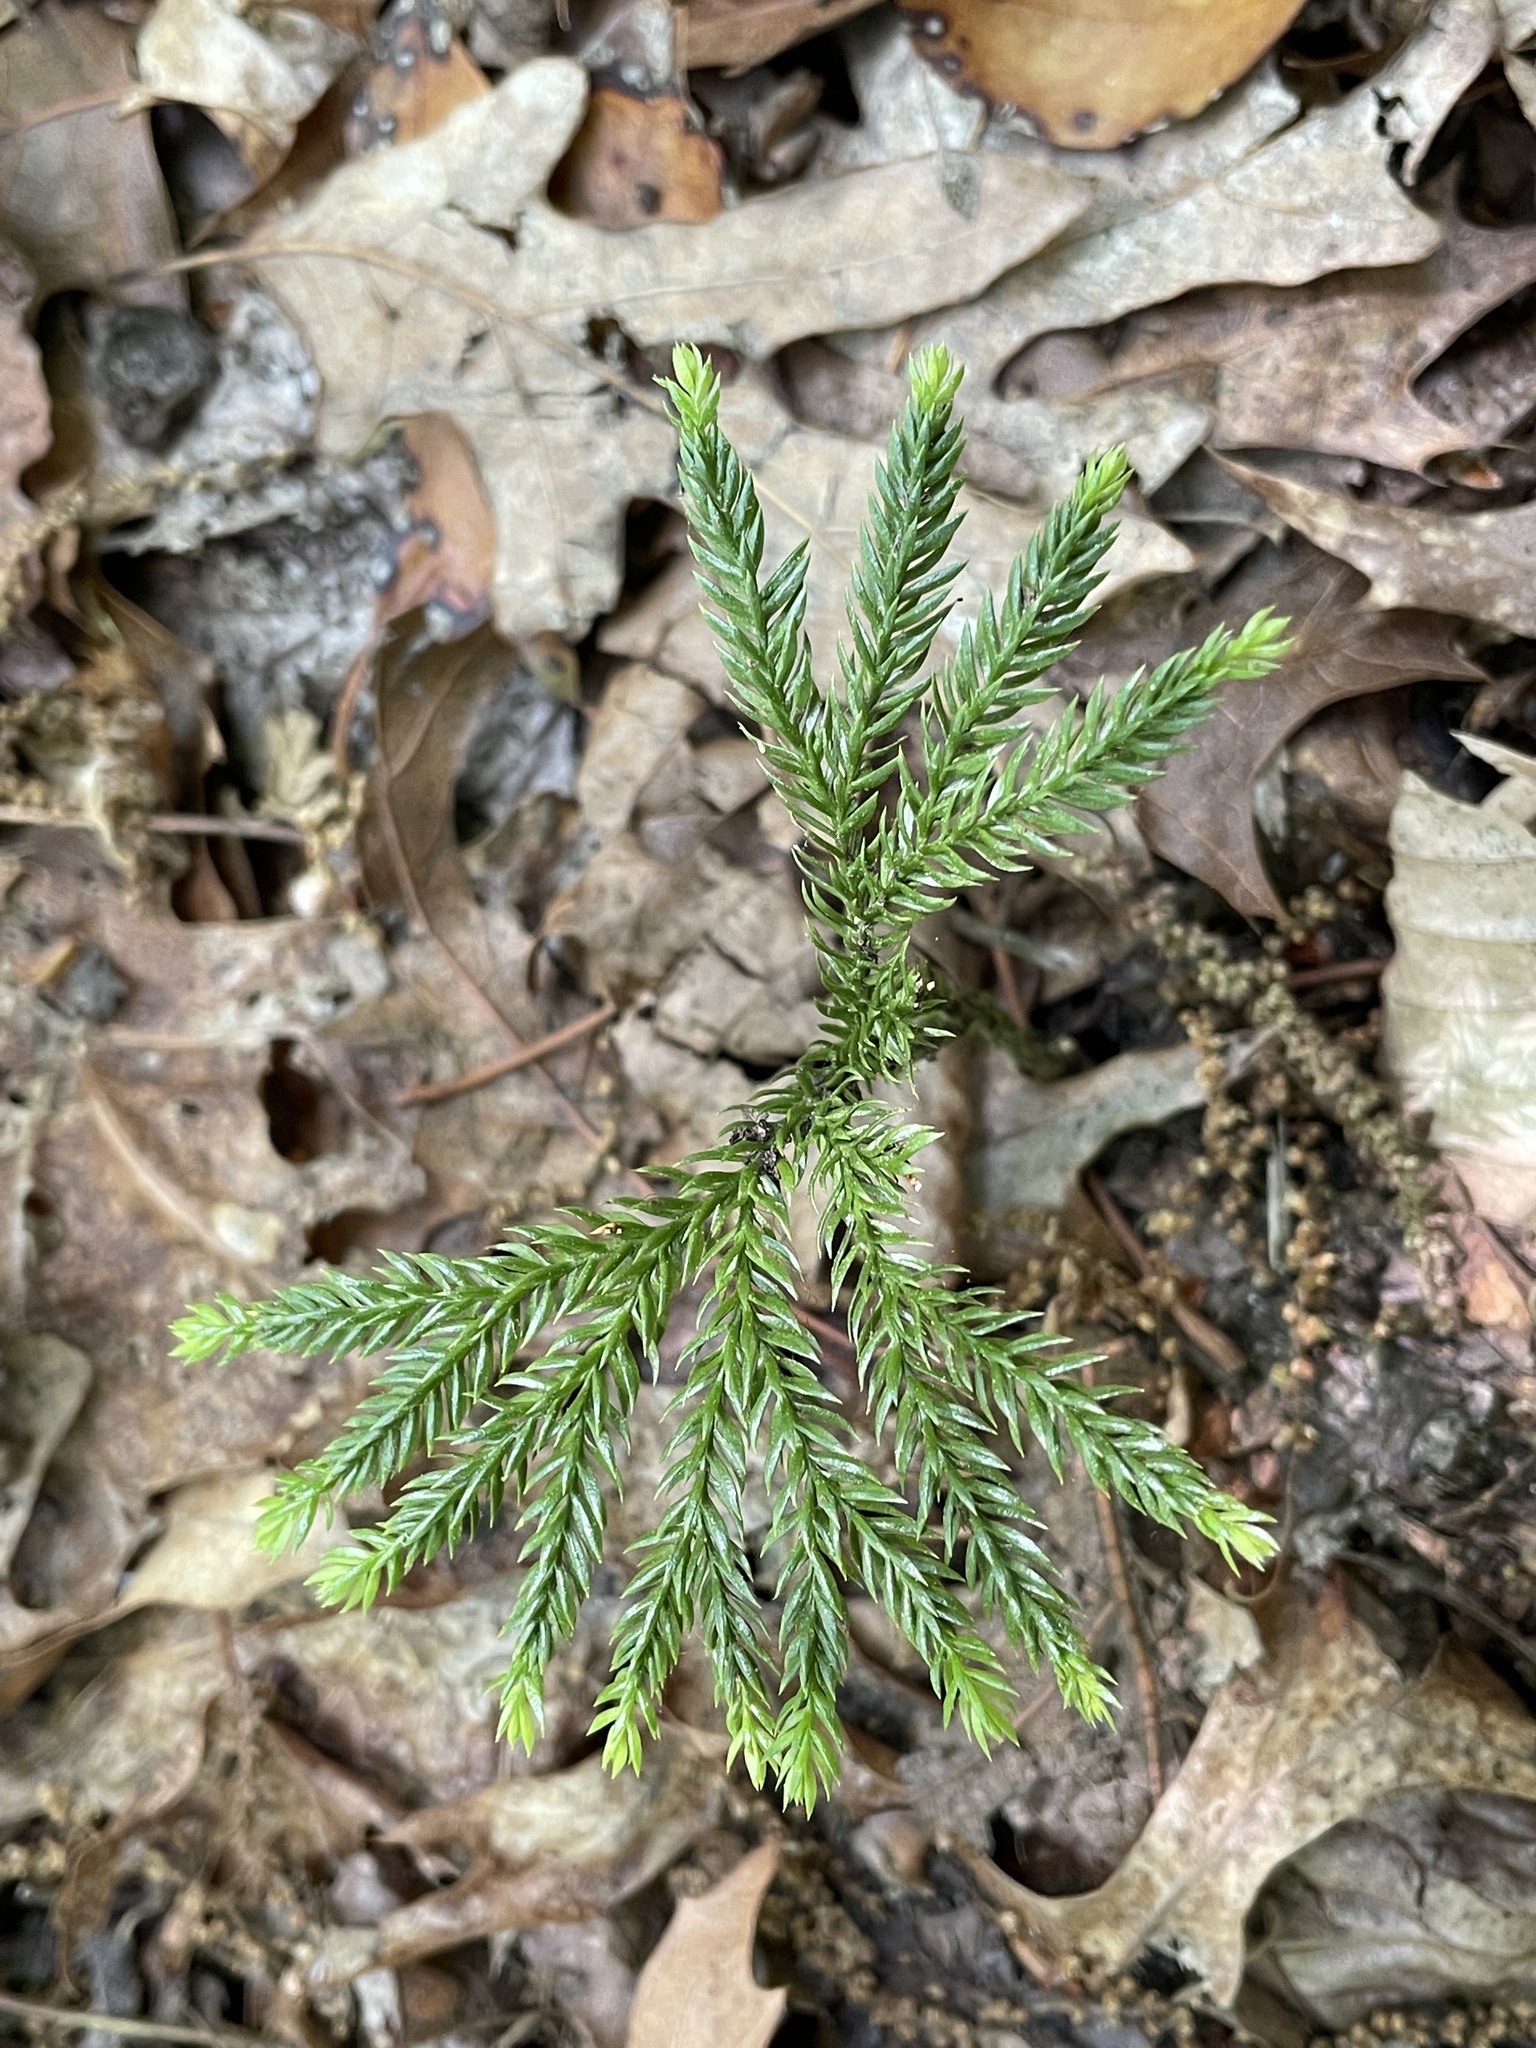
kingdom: Plantae
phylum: Tracheophyta
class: Lycopodiopsida
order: Lycopodiales
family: Lycopodiaceae
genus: Dendrolycopodium
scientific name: Dendrolycopodium obscurum
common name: Common ground-pine
